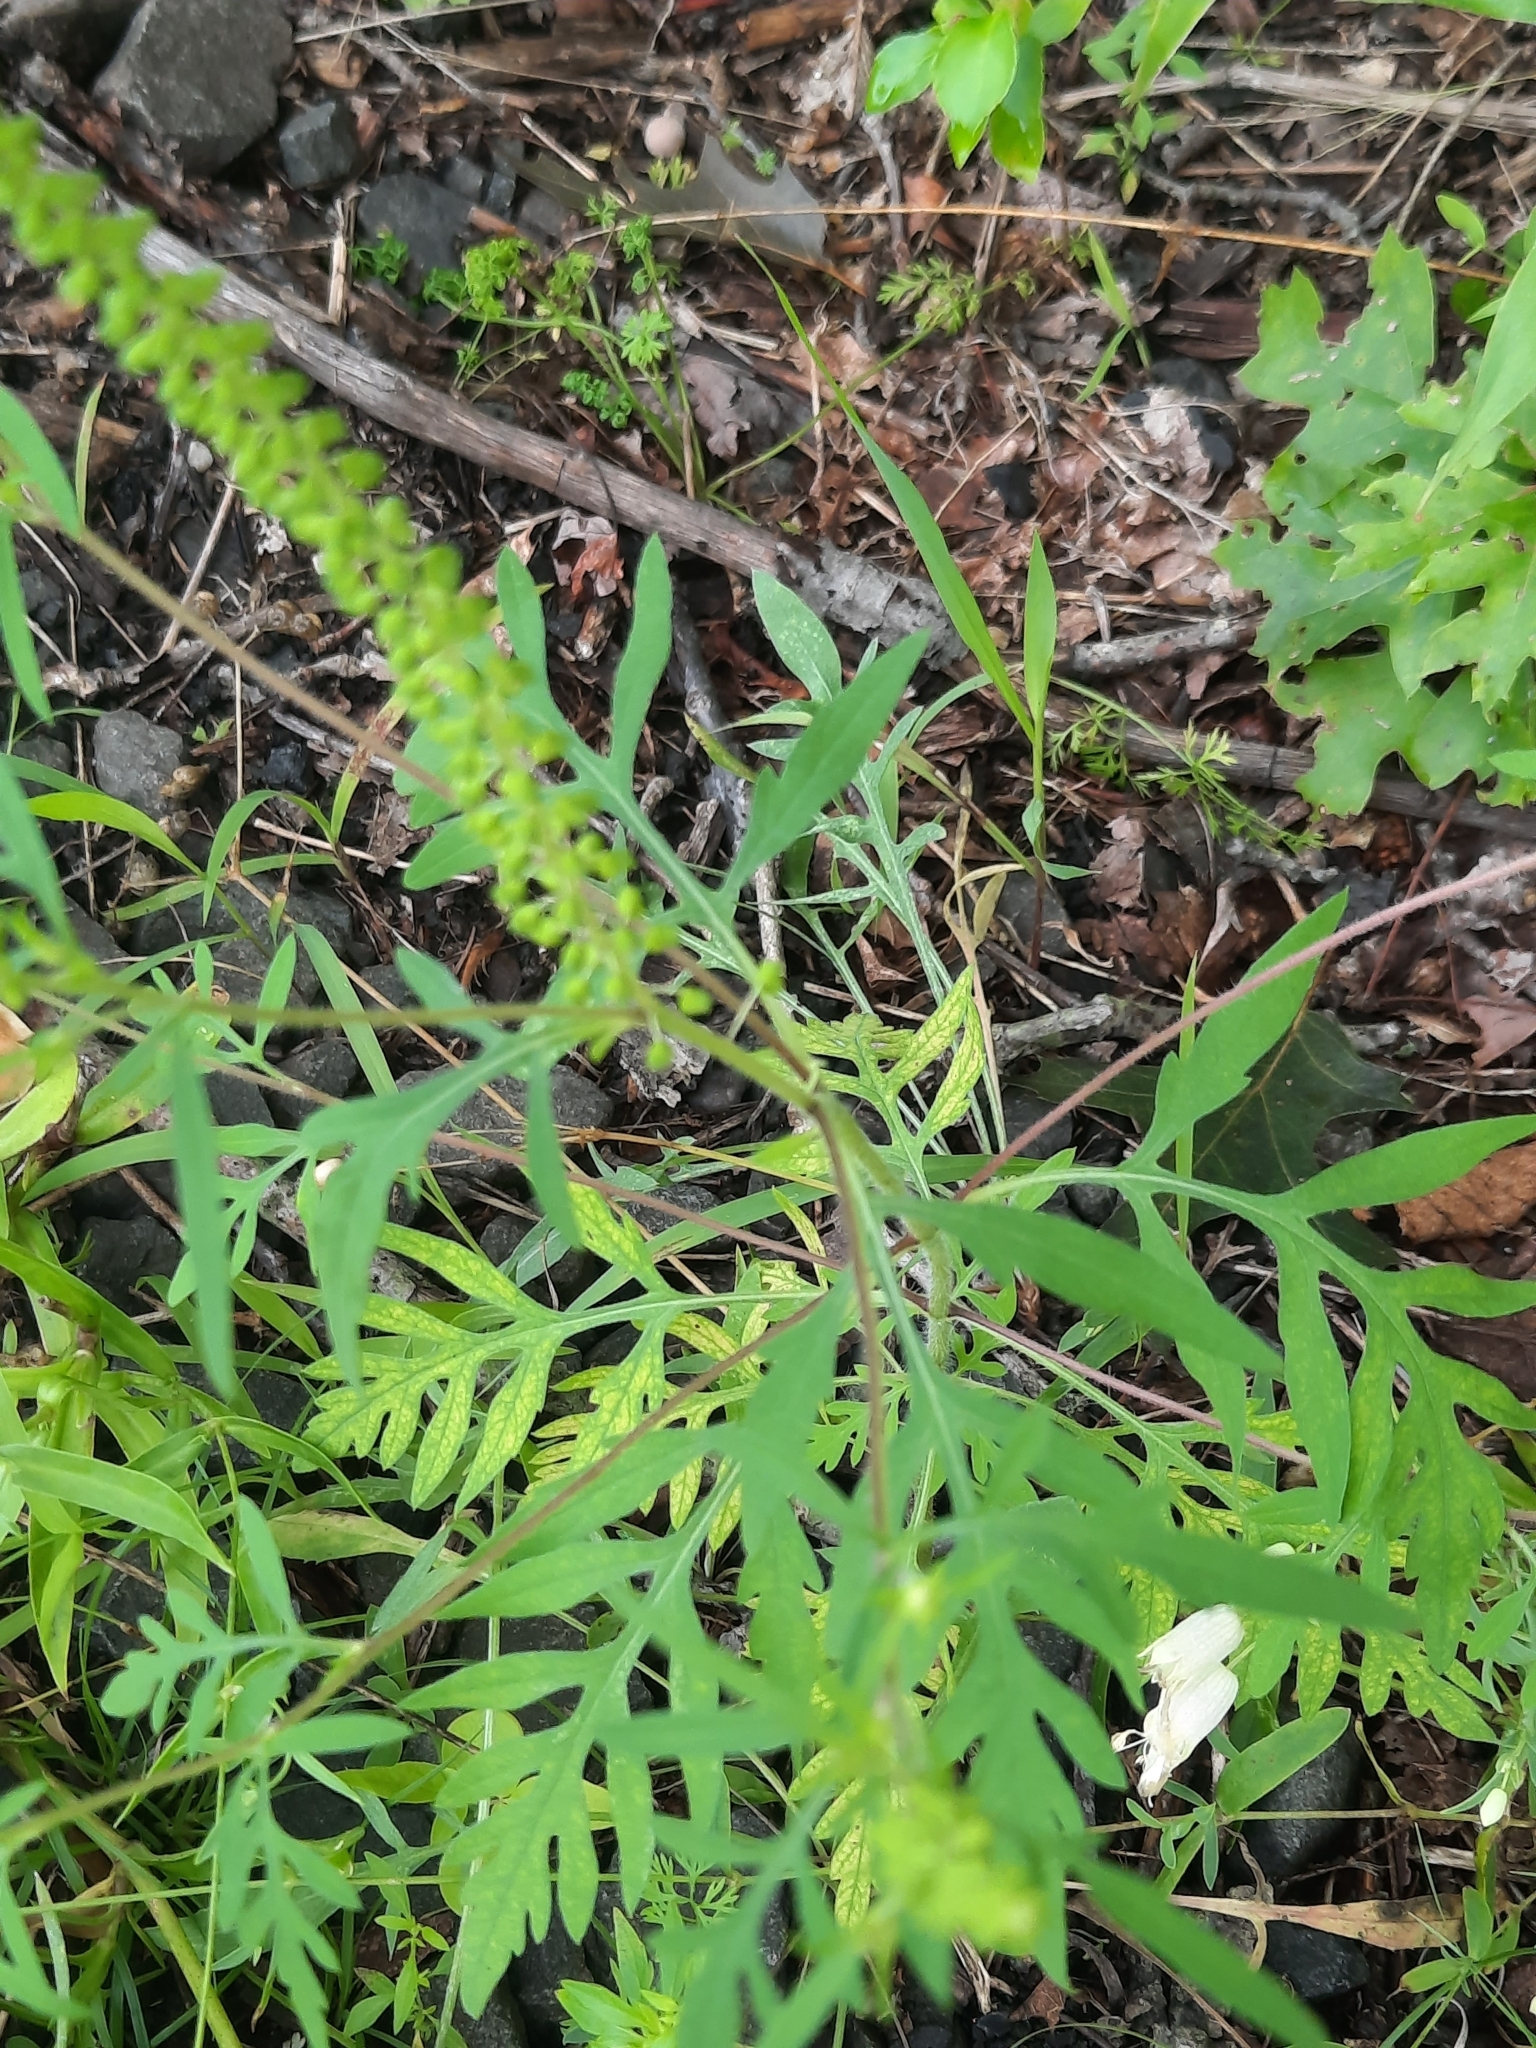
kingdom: Plantae
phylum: Tracheophyta
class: Magnoliopsida
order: Asterales
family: Asteraceae
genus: Ambrosia
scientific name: Ambrosia artemisiifolia
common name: Annual ragweed
